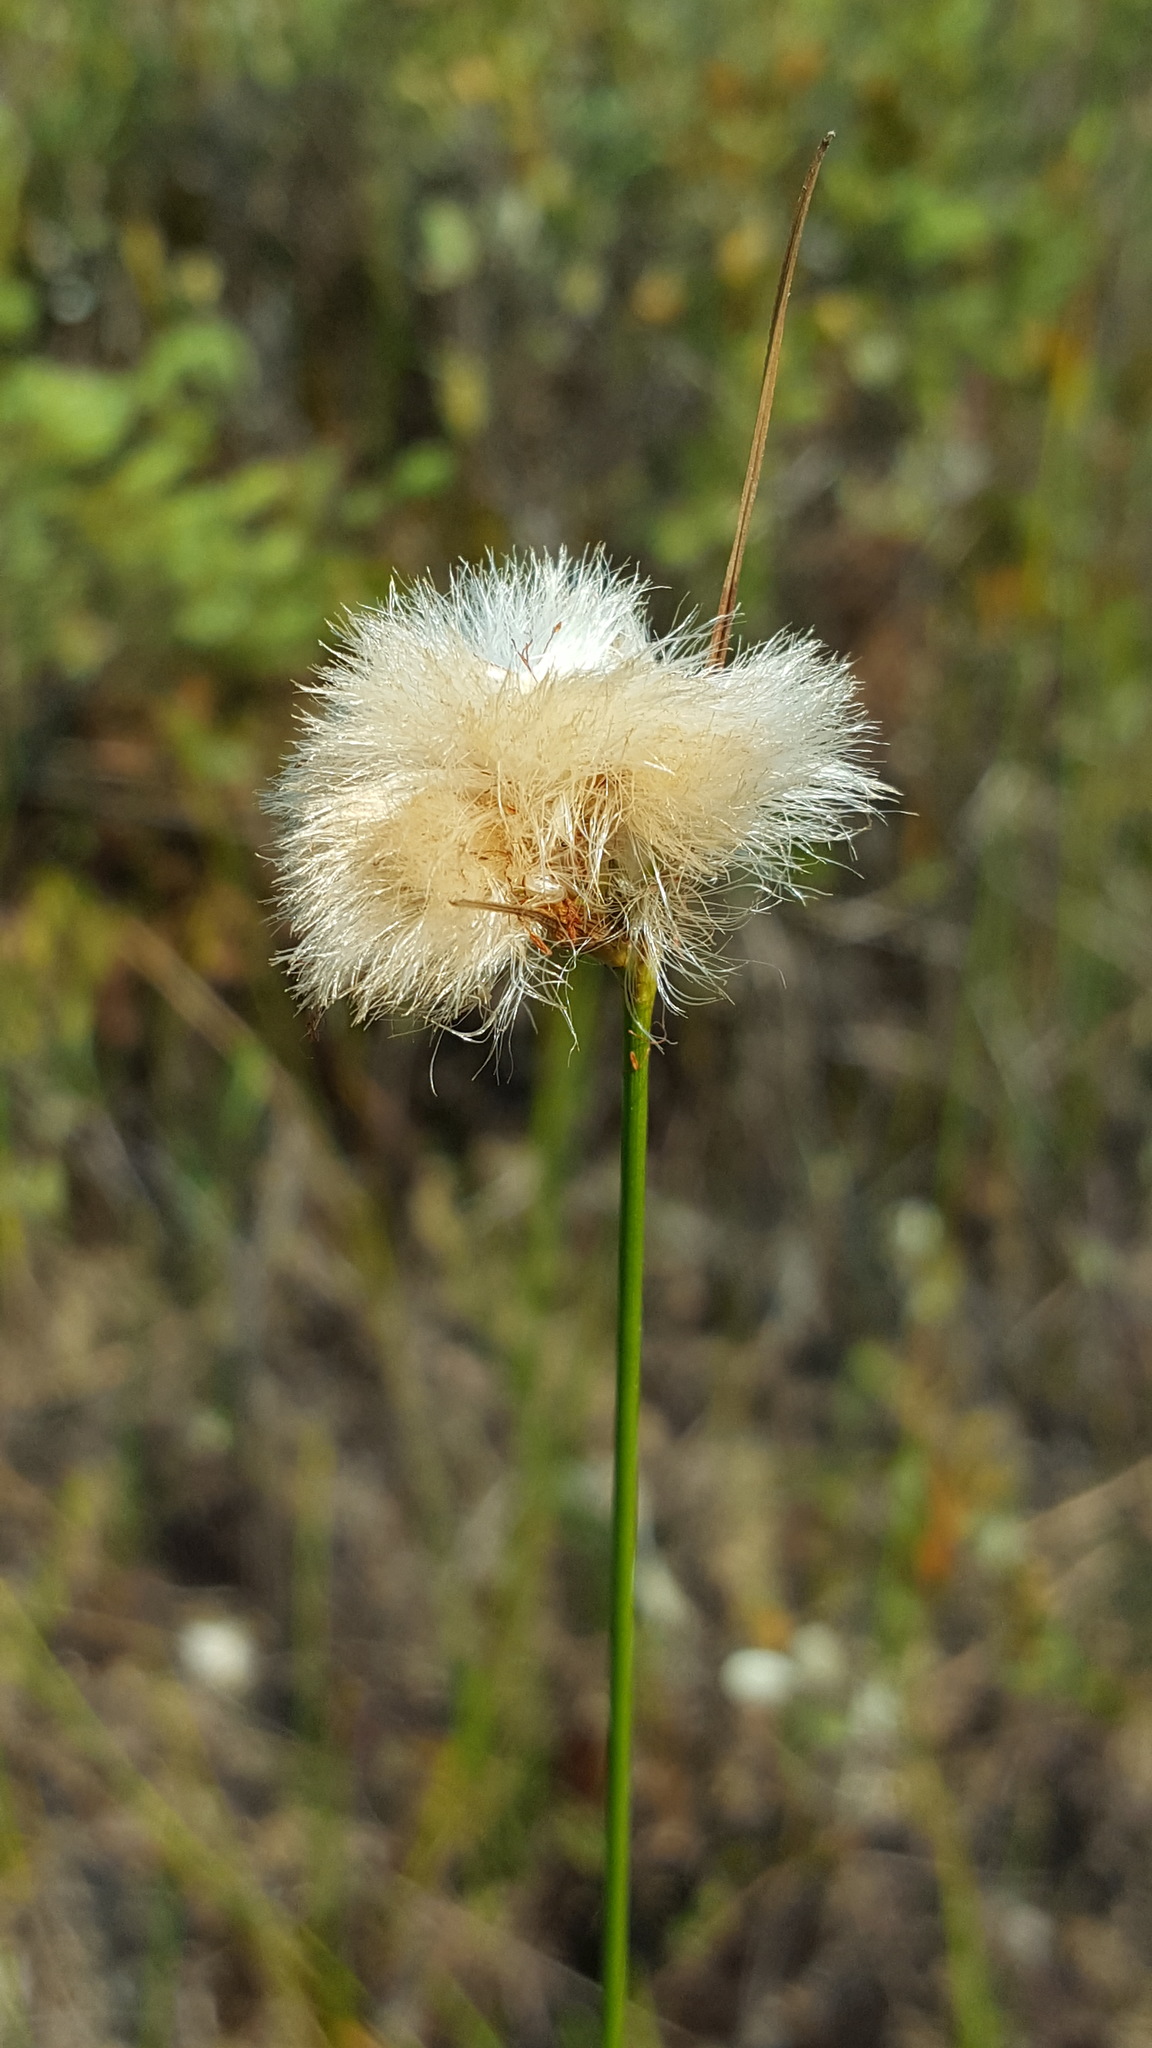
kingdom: Plantae
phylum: Tracheophyta
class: Liliopsida
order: Poales
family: Cyperaceae
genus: Eriophorum
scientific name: Eriophorum virginicum
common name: Tawny cottongrass
